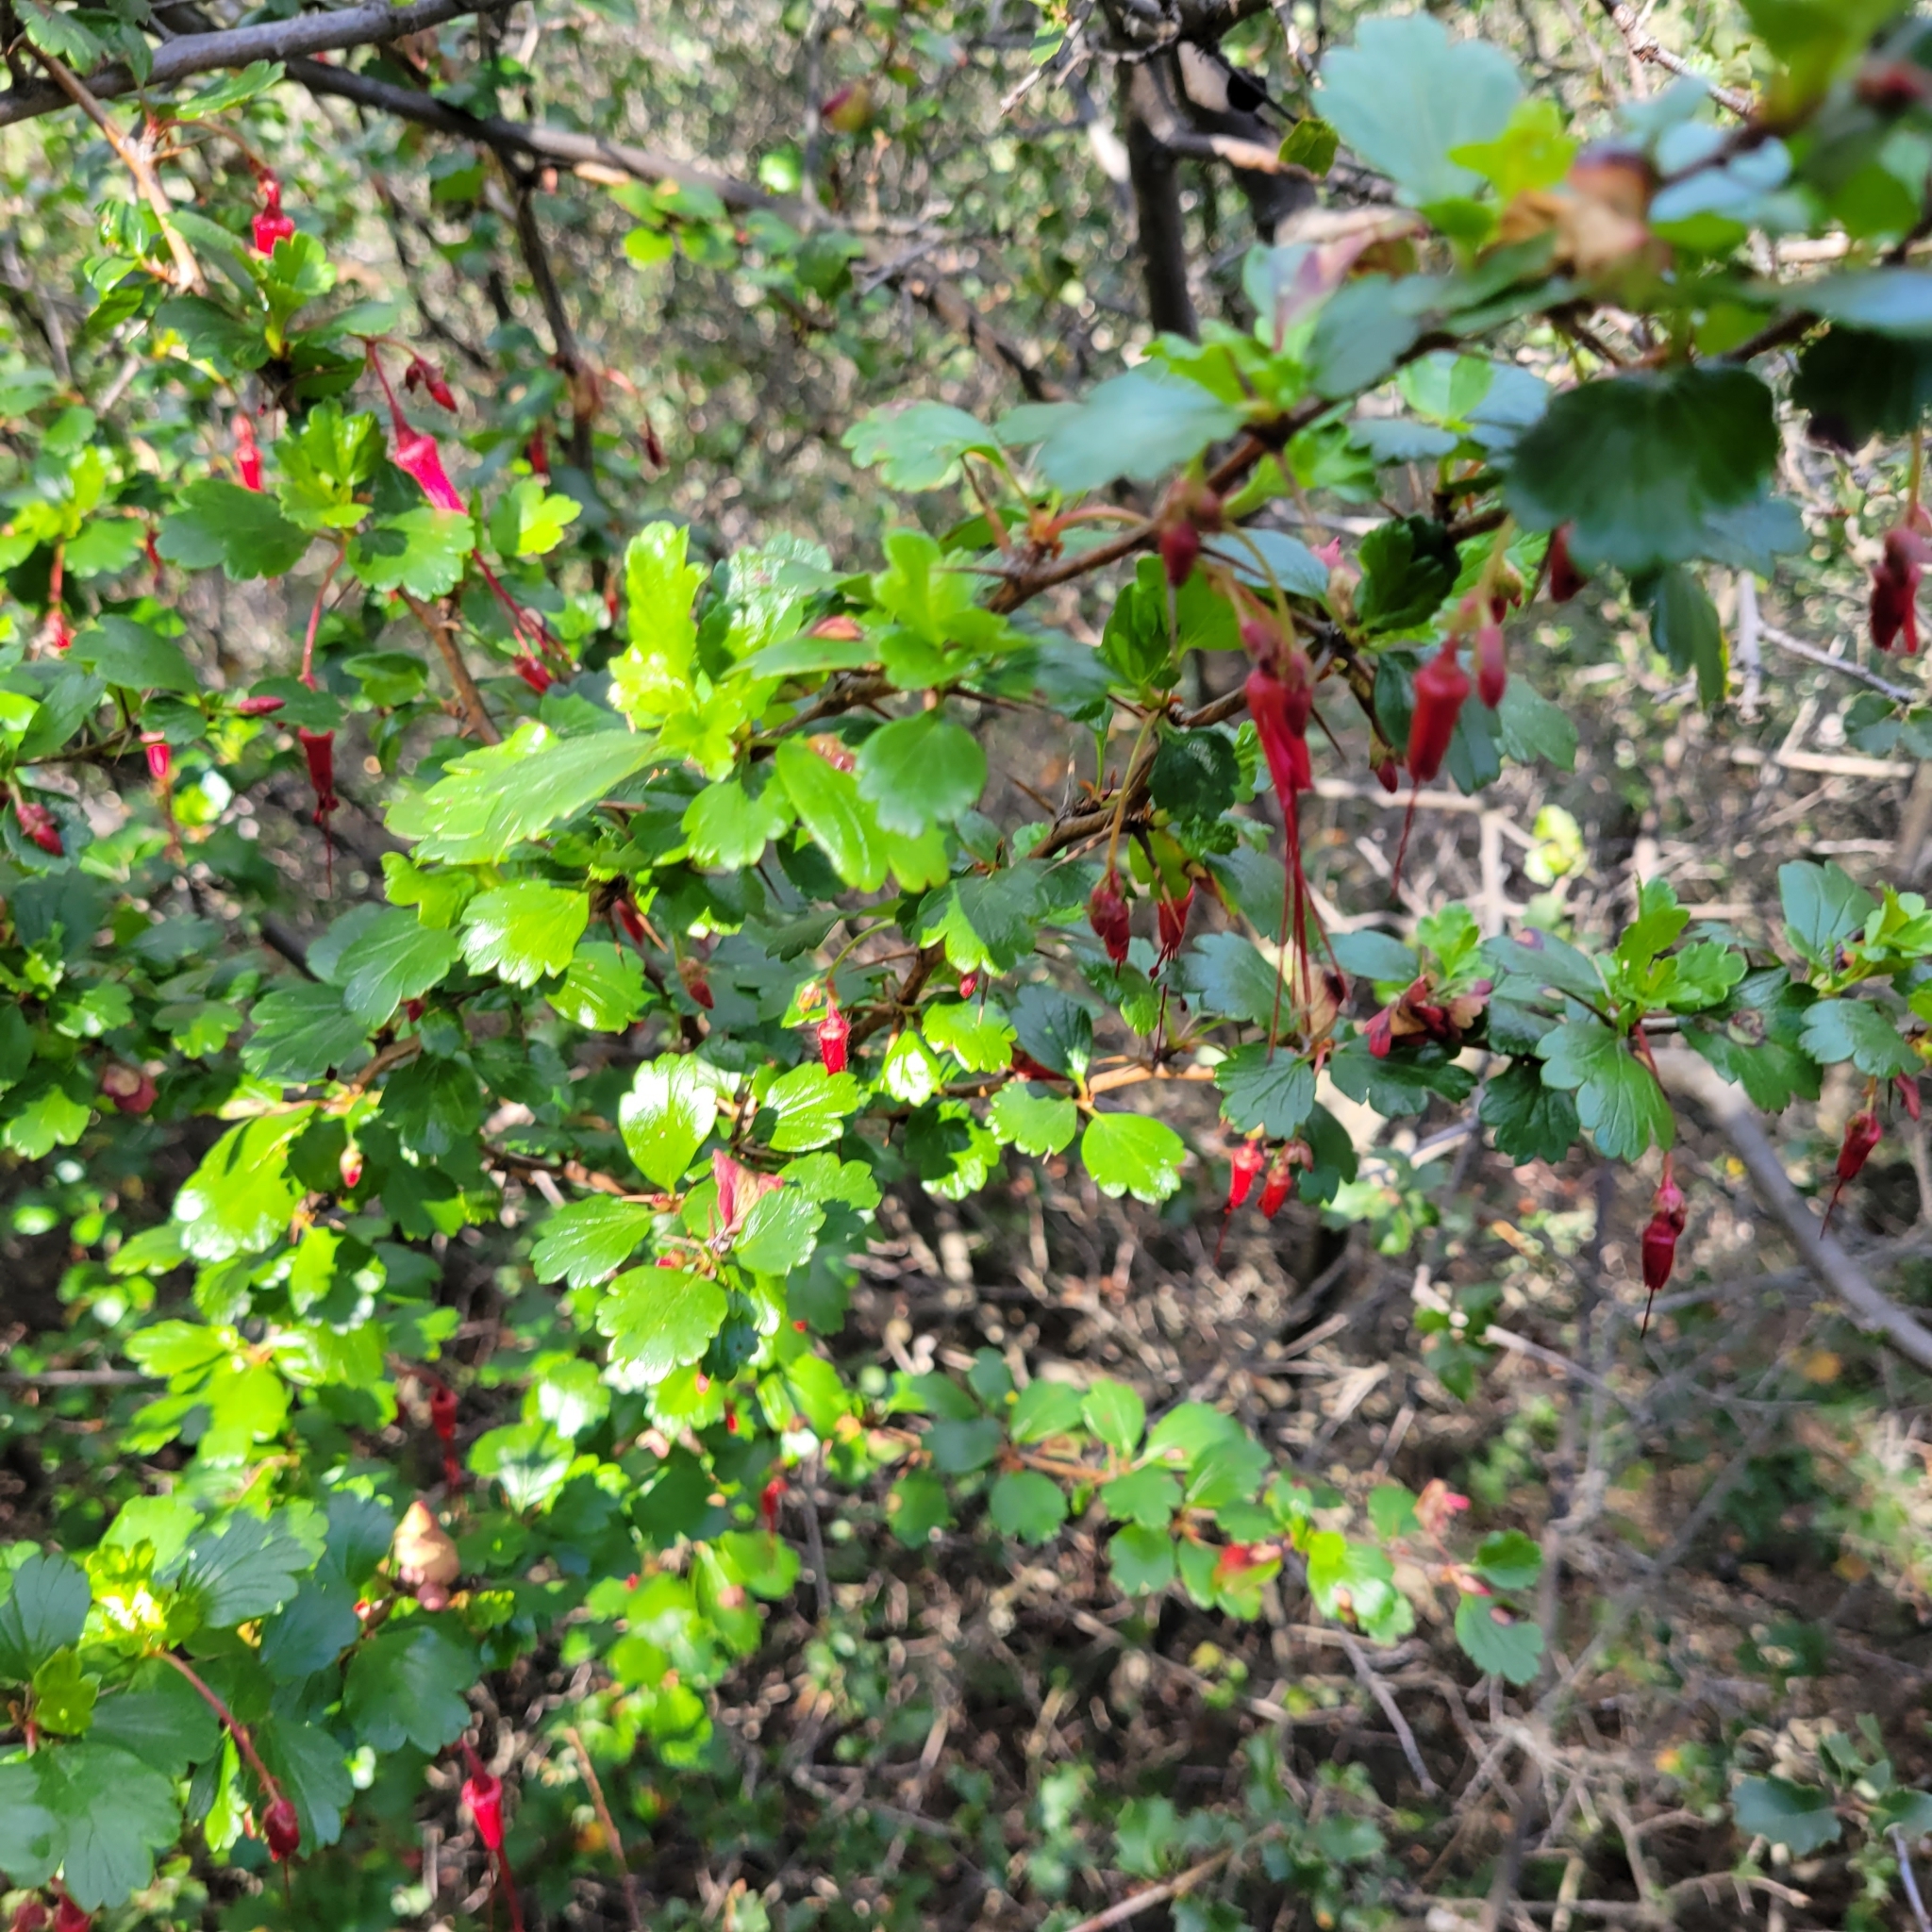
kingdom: Plantae
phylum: Tracheophyta
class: Magnoliopsida
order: Saxifragales
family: Grossulariaceae
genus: Ribes
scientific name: Ribes speciosum
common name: Fuchsia-flower gooseberry
